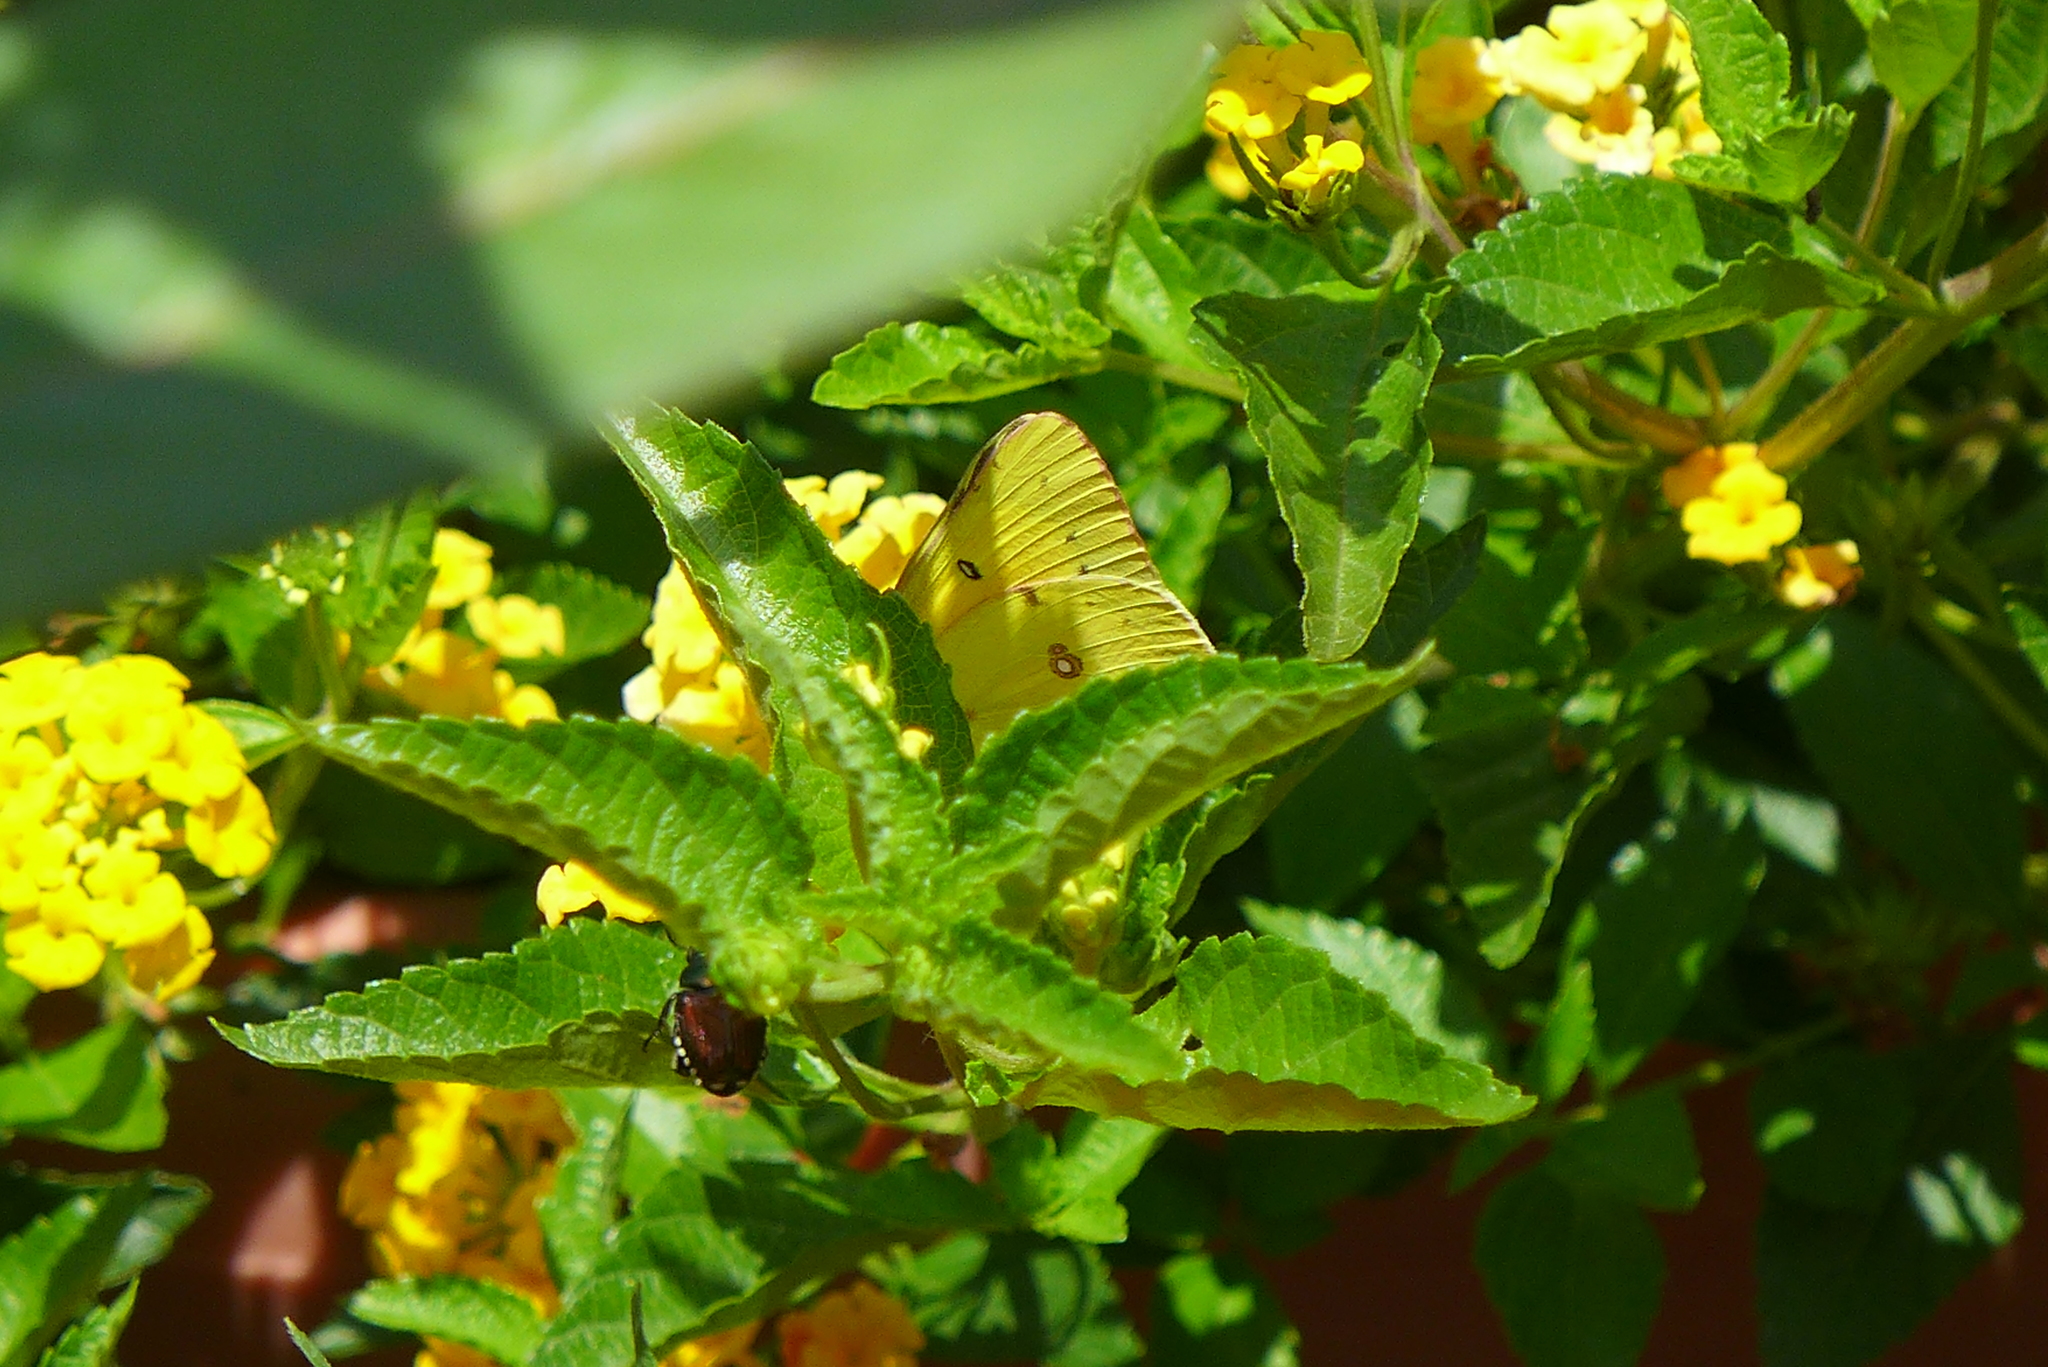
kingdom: Animalia
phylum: Arthropoda
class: Insecta
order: Coleoptera
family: Scarabaeidae
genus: Popillia
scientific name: Popillia japonica
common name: Japanese beetle
